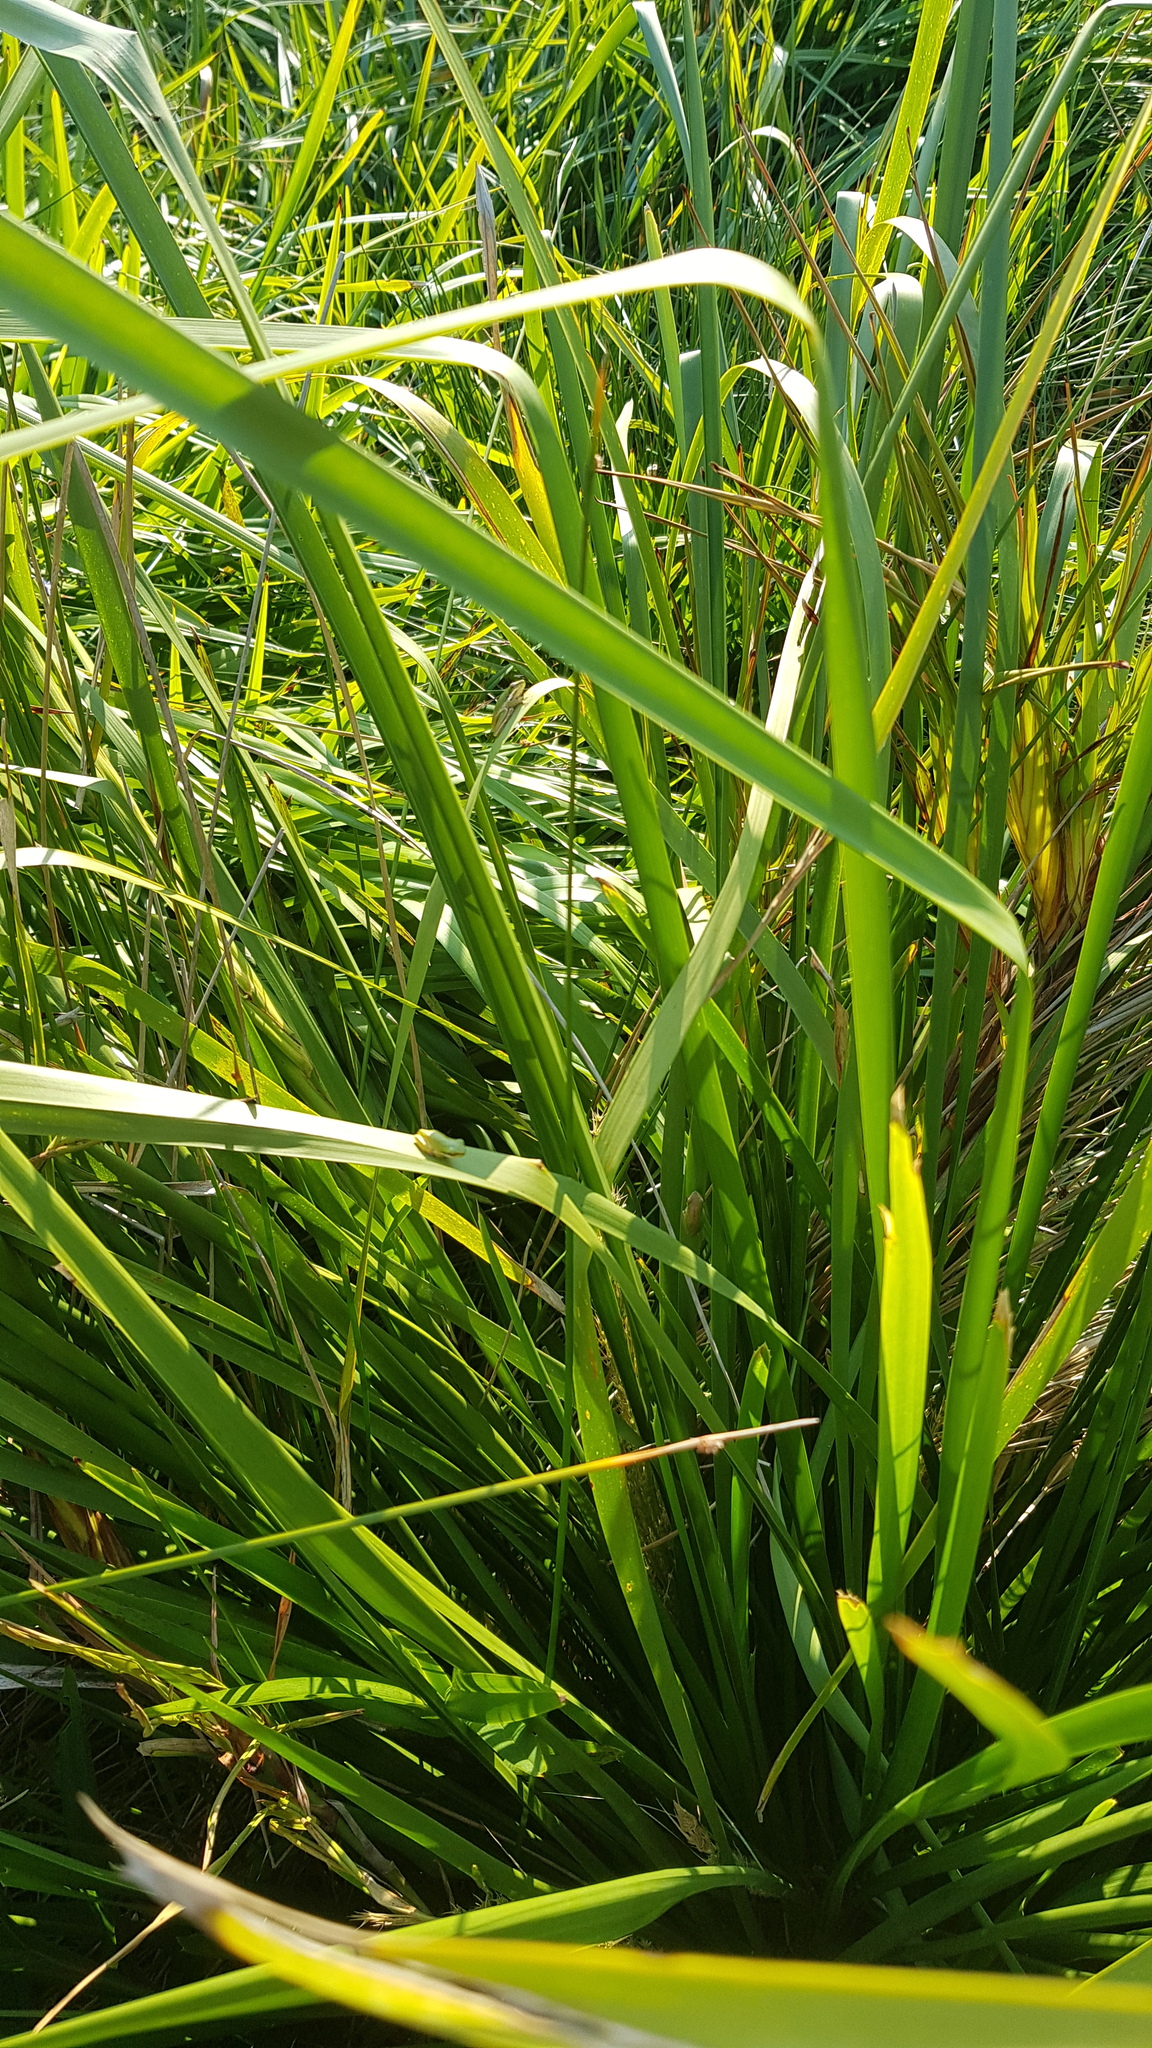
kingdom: Animalia
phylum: Chordata
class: Amphibia
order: Anura
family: Pelodryadidae
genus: Litoria
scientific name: Litoria fallax
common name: Eastern dwarf treefrog
